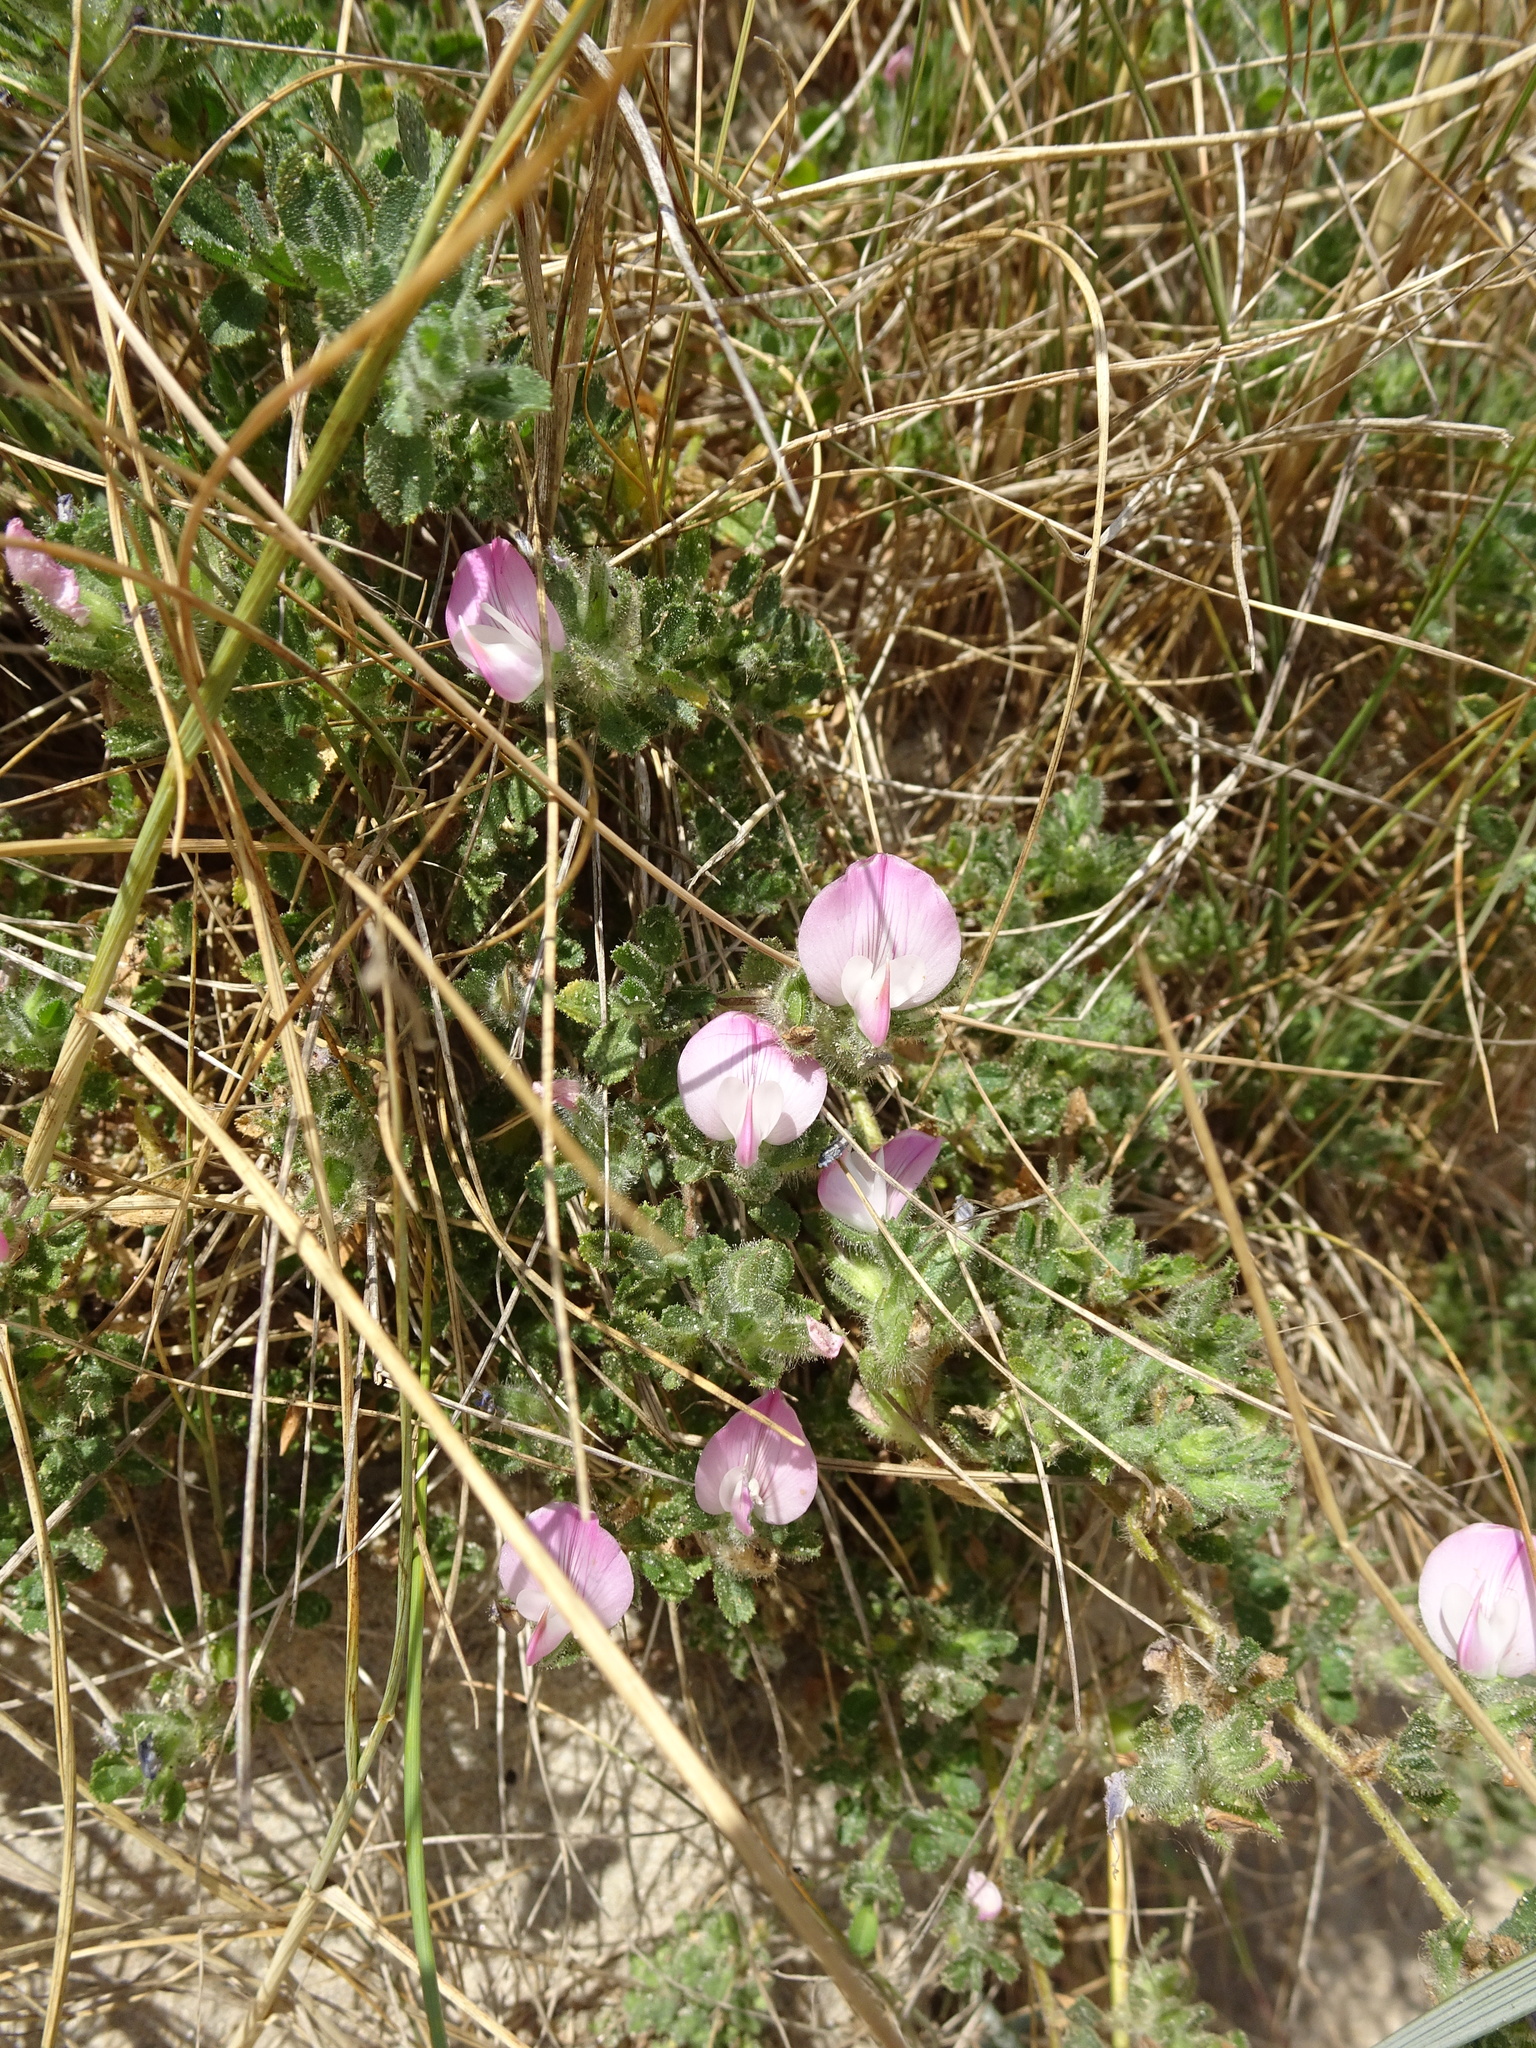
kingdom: Plantae
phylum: Tracheophyta
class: Magnoliopsida
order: Fabales
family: Fabaceae
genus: Ononis
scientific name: Ononis spinosa
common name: Spiny restharrow
